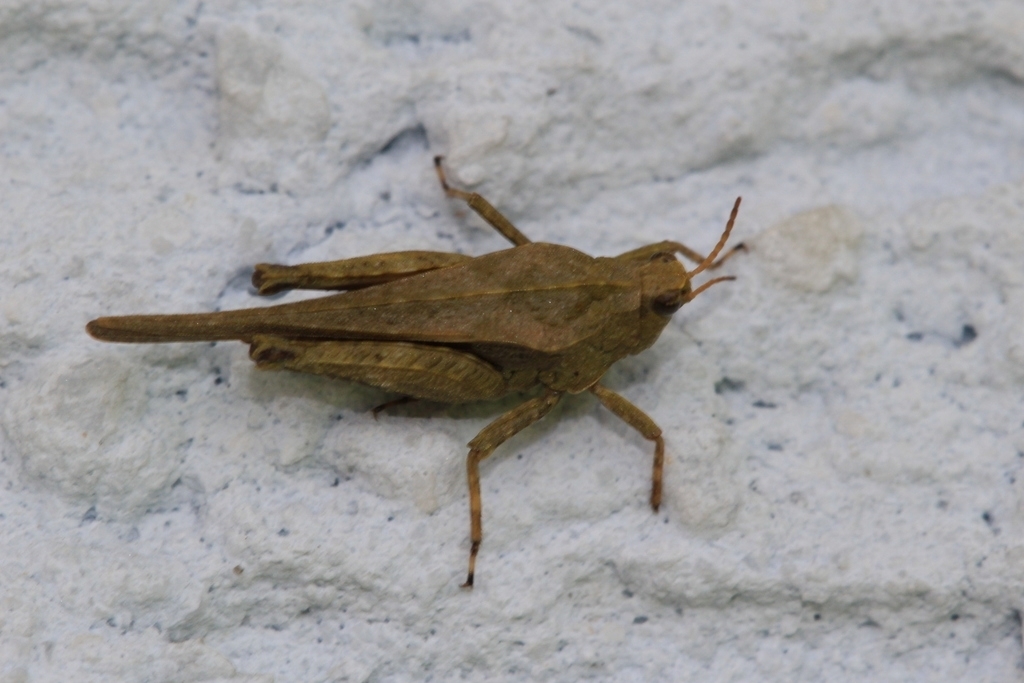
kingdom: Animalia
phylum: Arthropoda
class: Insecta
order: Orthoptera
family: Tetrigidae
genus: Tetrix
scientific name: Tetrix subulata
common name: Slender ground-hopper
